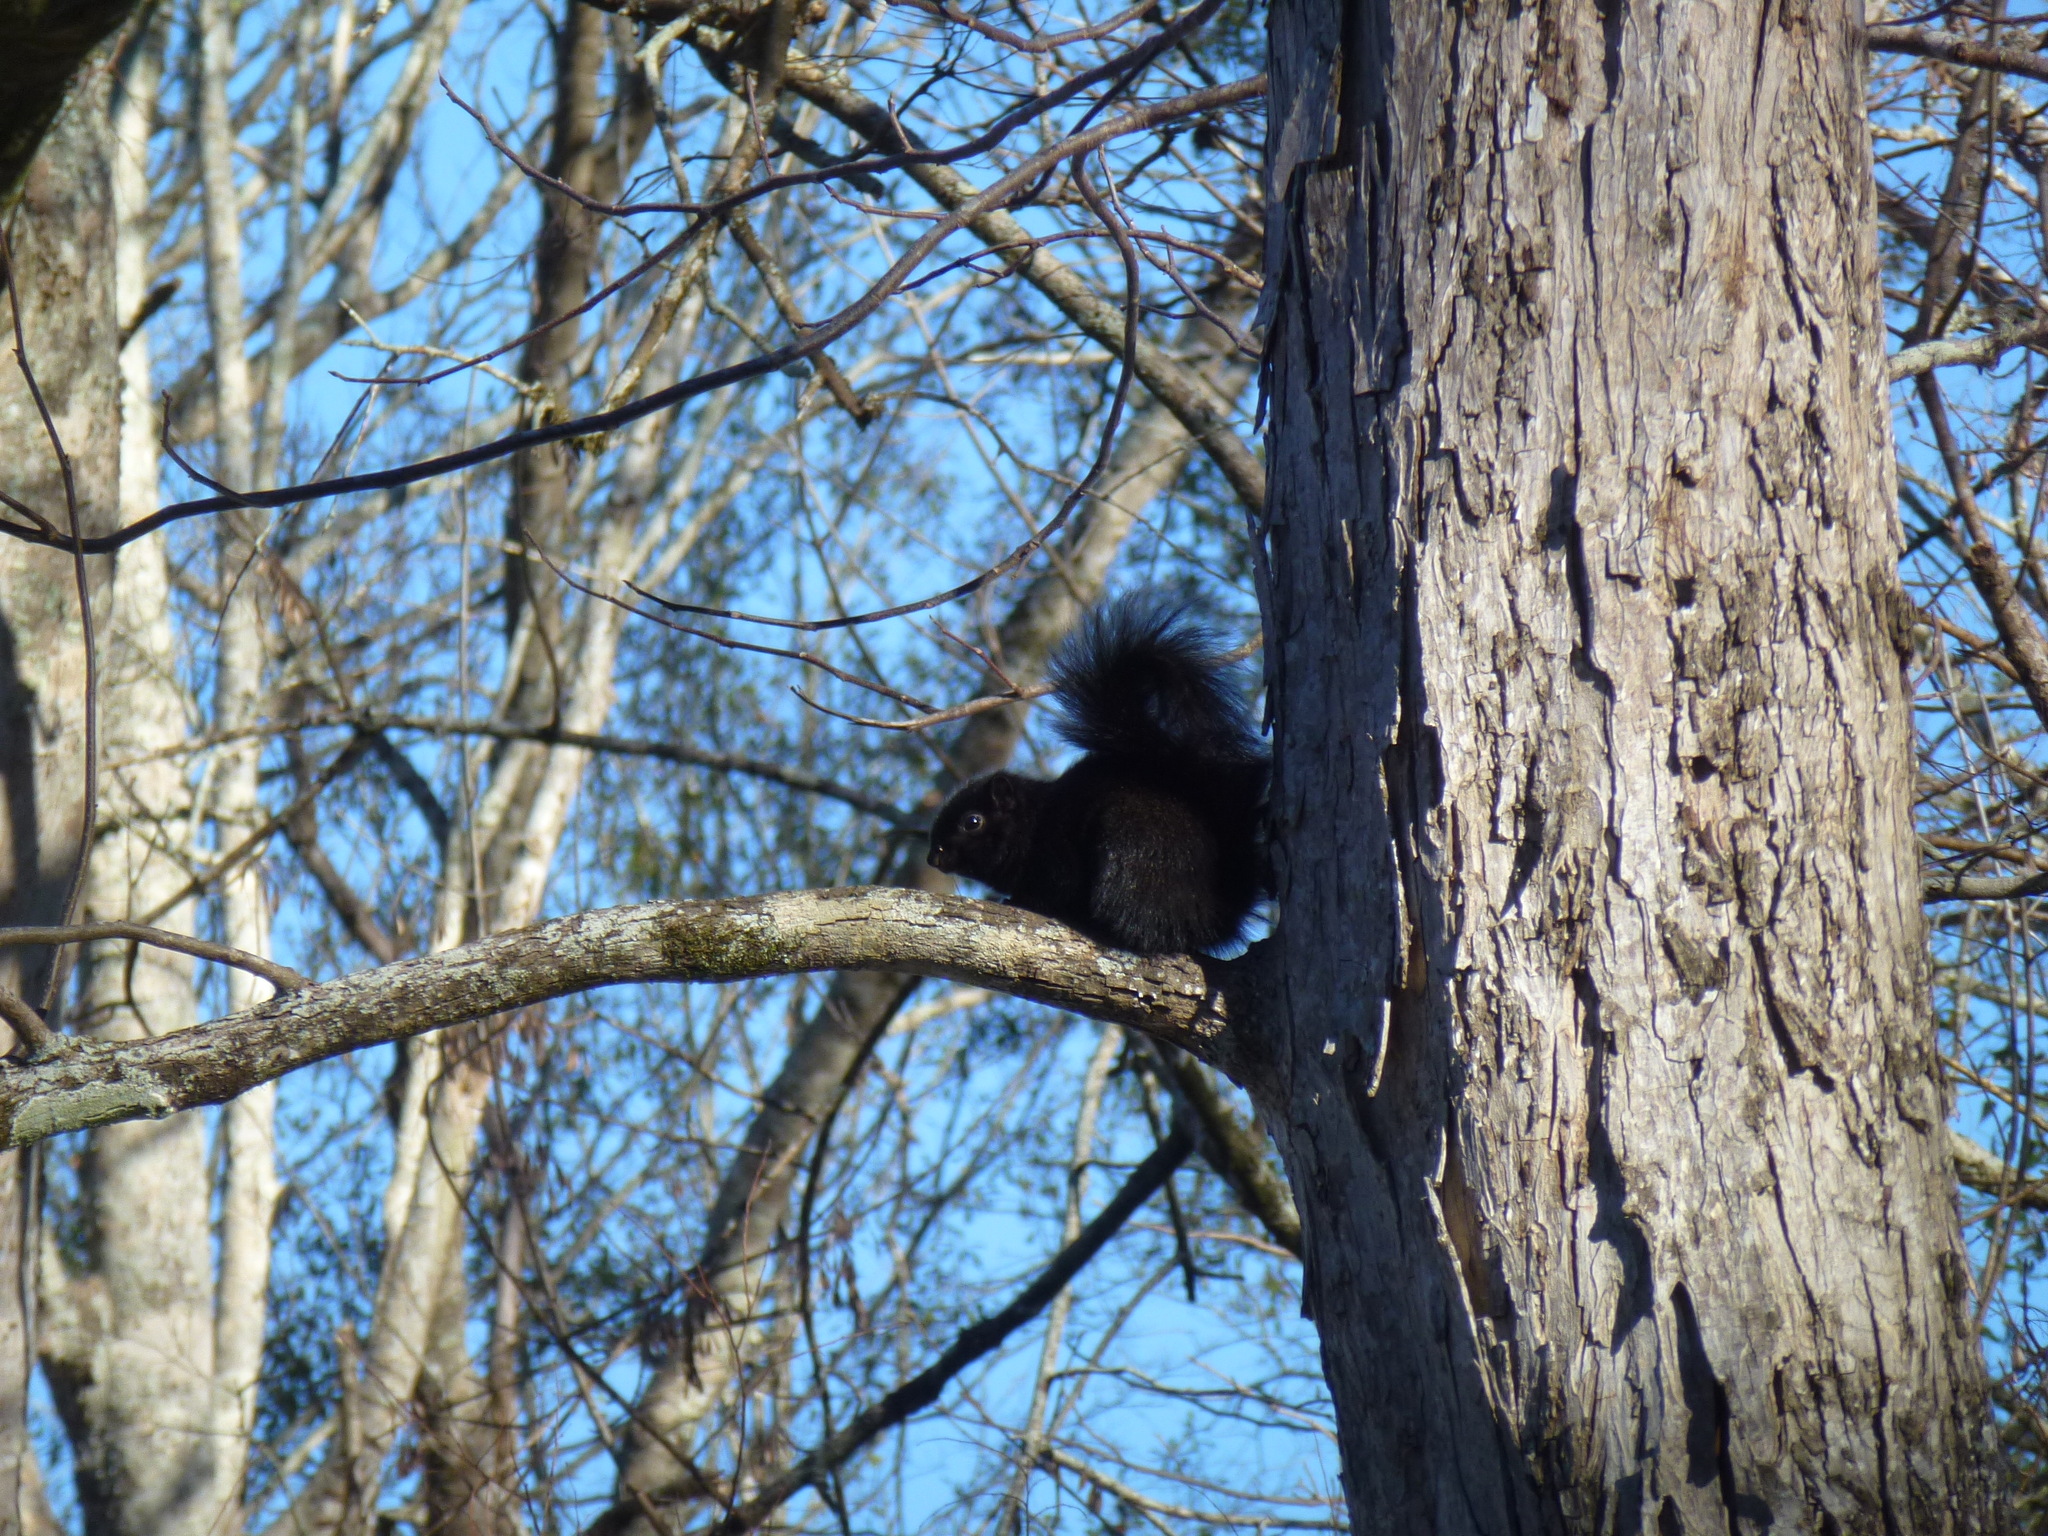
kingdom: Animalia
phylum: Chordata
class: Mammalia
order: Rodentia
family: Sciuridae
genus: Sciurus
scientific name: Sciurus carolinensis
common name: Eastern gray squirrel
